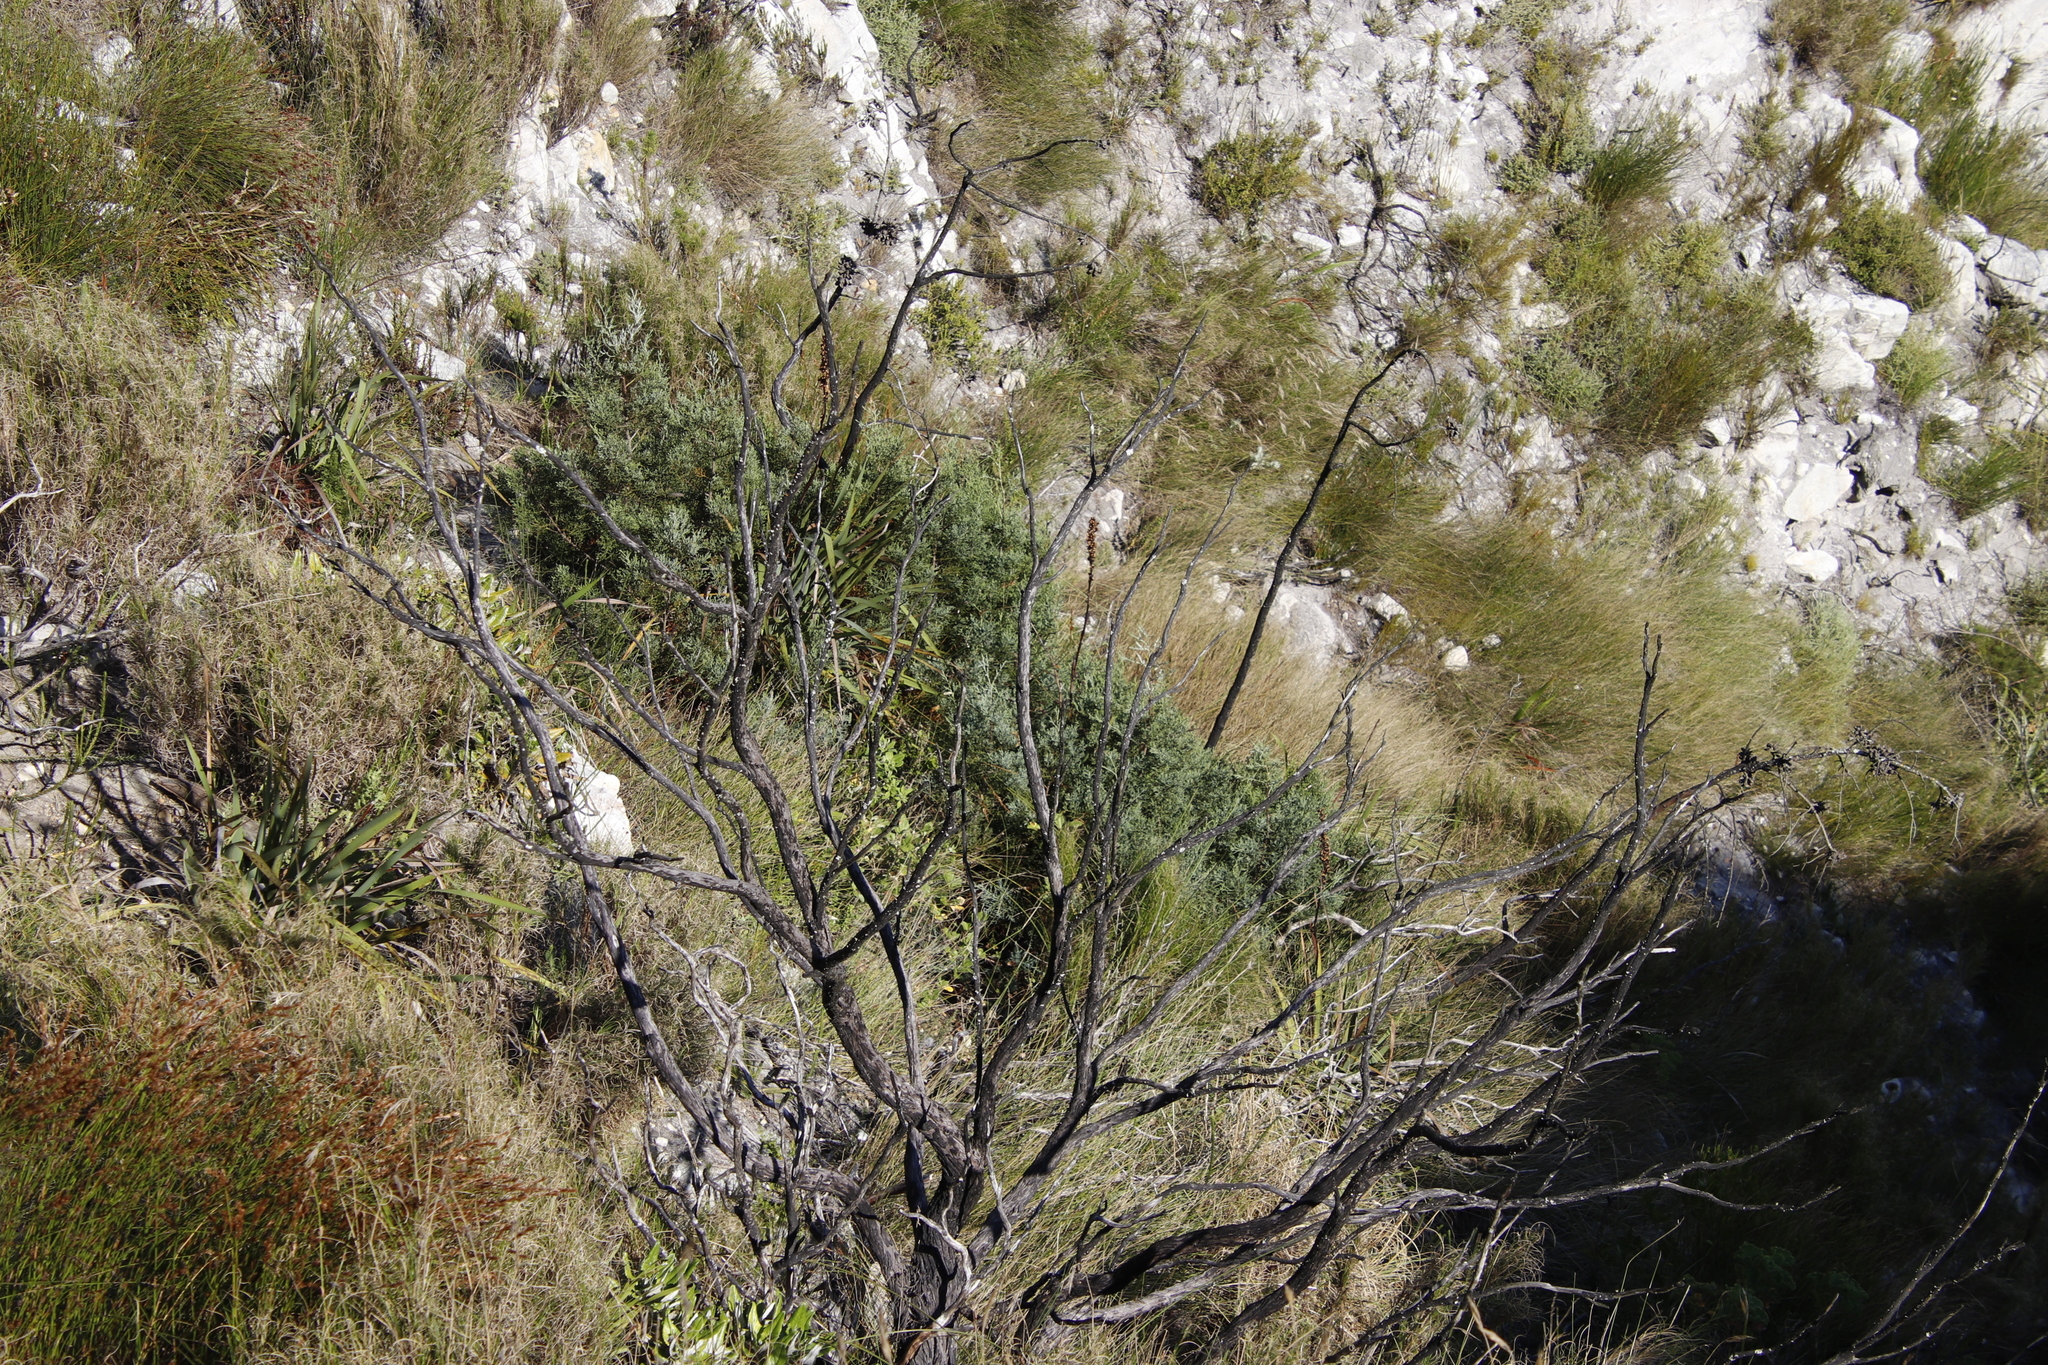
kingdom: Plantae
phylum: Tracheophyta
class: Pinopsida
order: Pinales
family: Cupressaceae
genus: Widdringtonia
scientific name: Widdringtonia nodiflora
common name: Cape cypress
